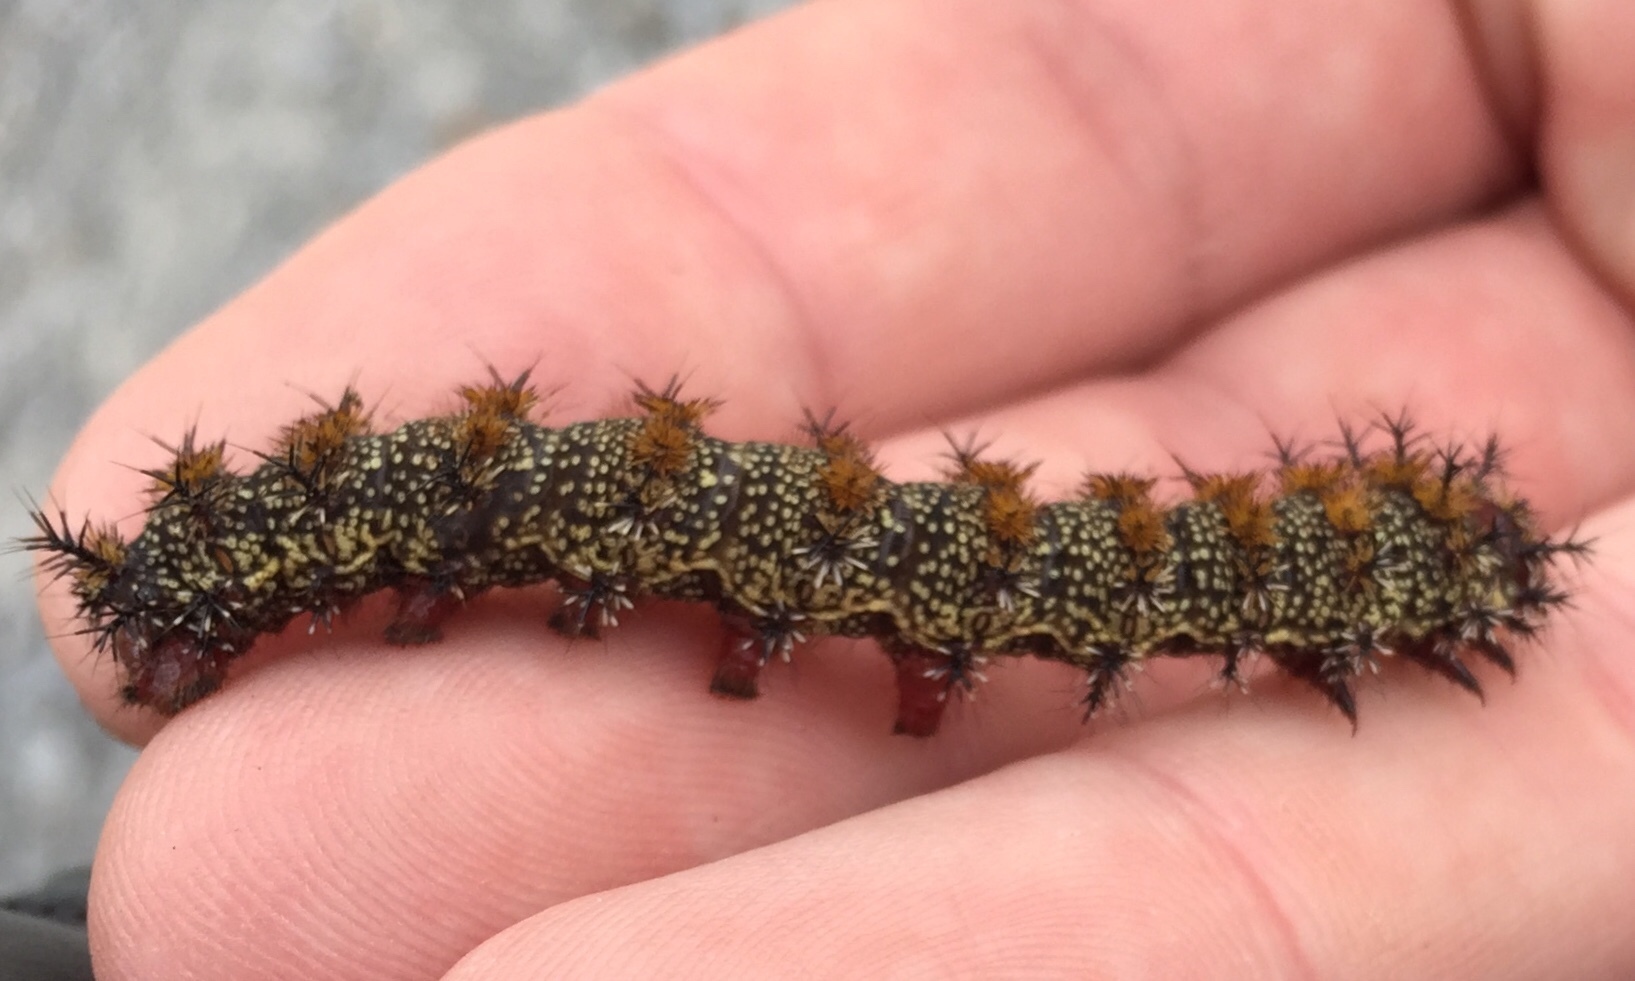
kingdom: Animalia
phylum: Arthropoda
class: Insecta
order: Lepidoptera
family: Saturniidae
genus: Hemileuca
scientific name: Hemileuca maia
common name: Eastern buckmoth
